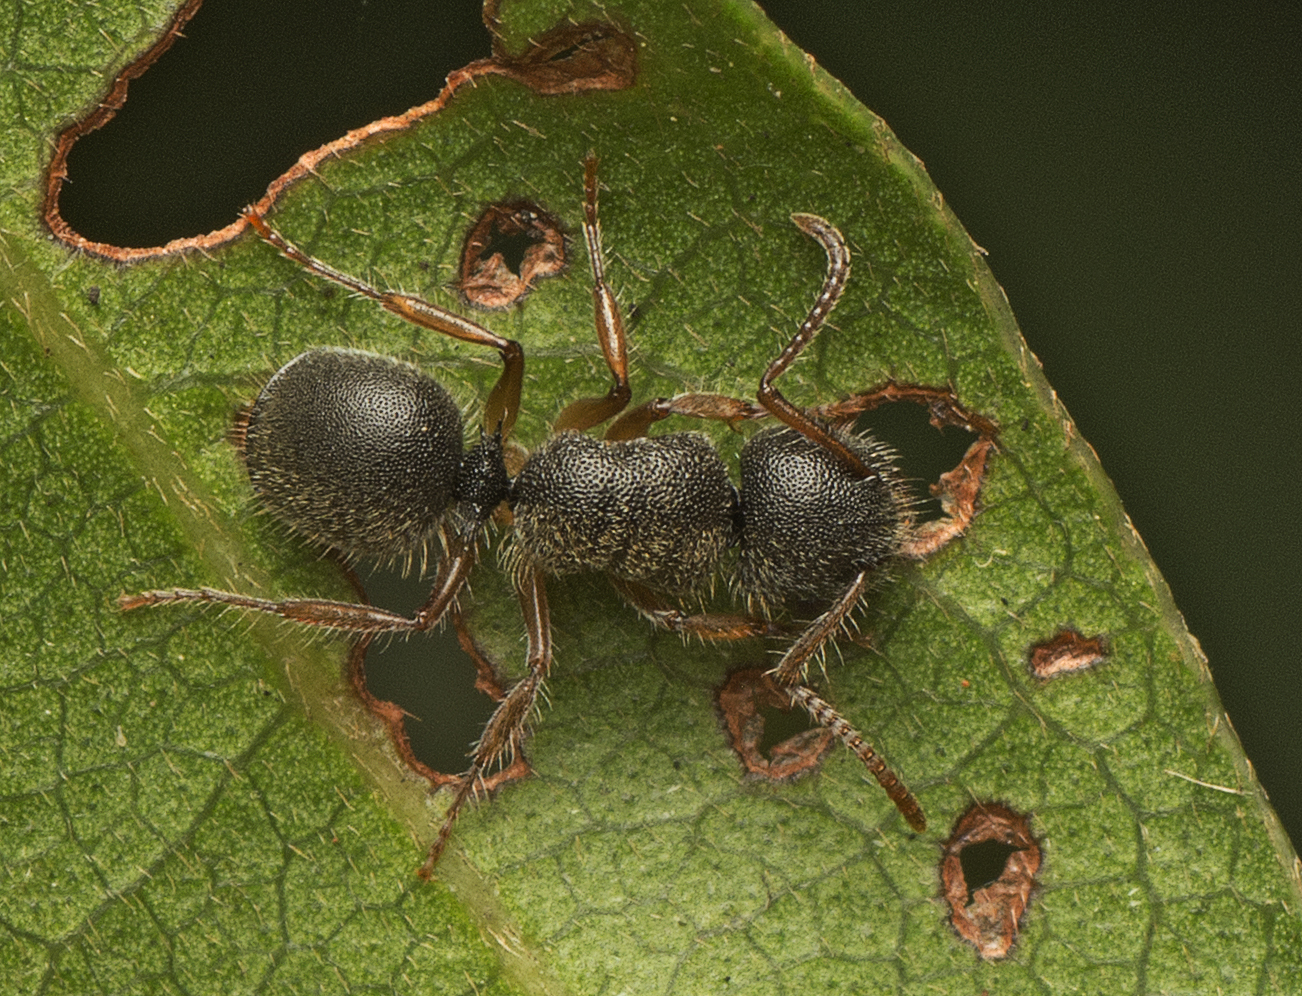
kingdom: Animalia
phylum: Arthropoda
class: Insecta
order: Hymenoptera
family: Formicidae
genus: Echinopla
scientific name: Echinopla turneri
